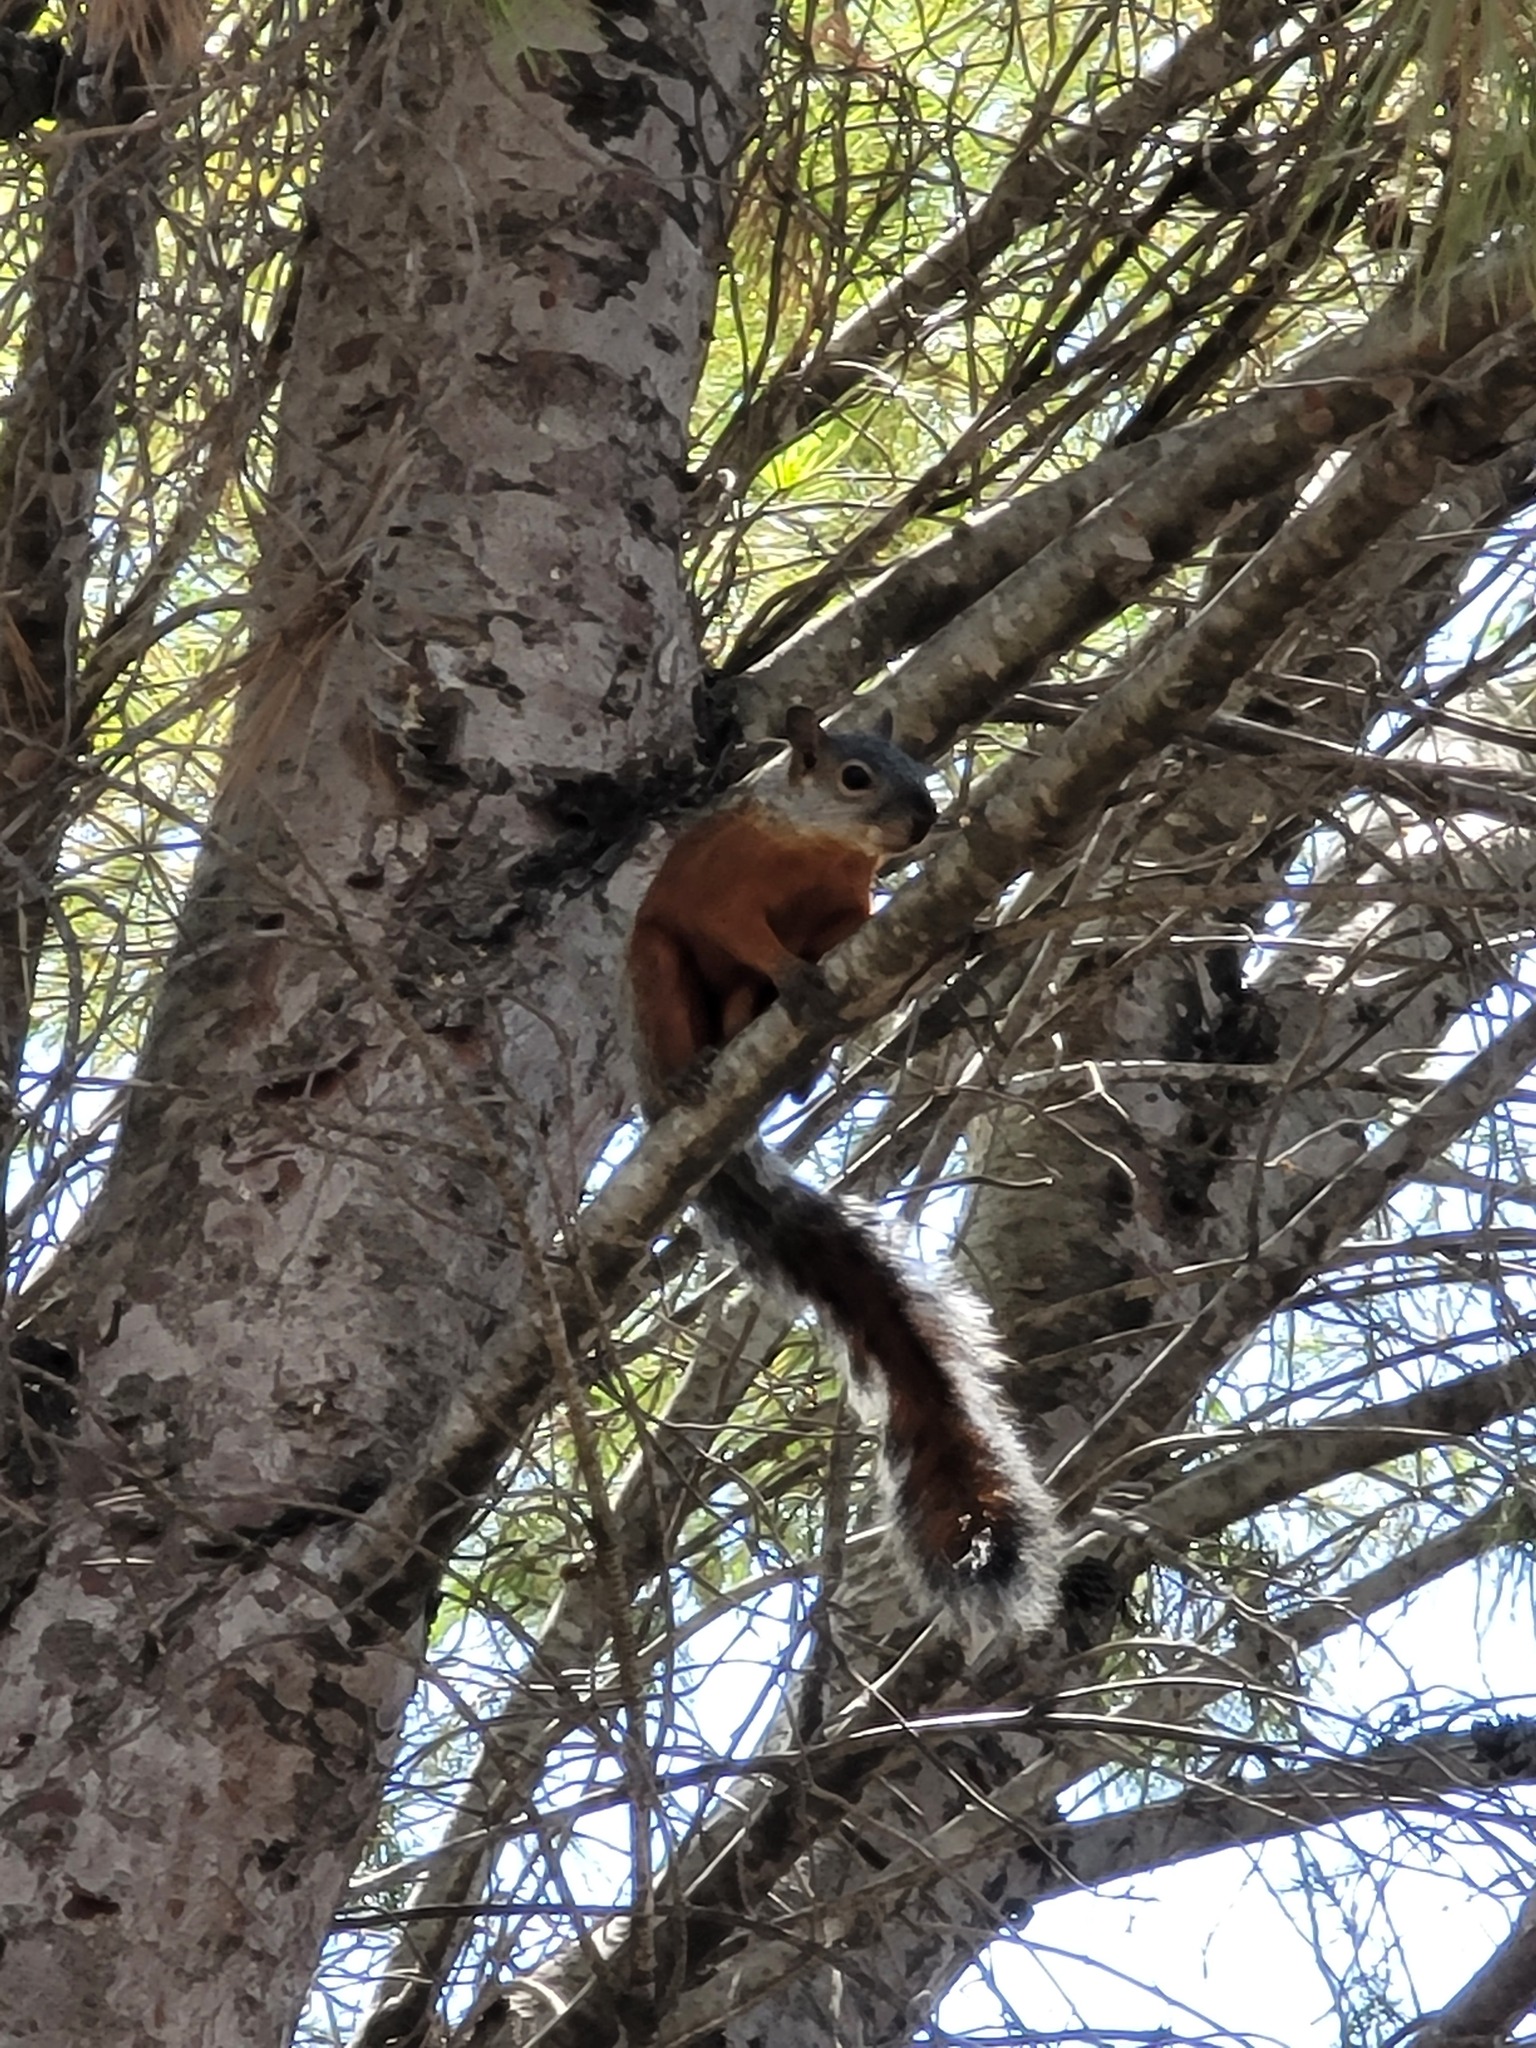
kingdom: Animalia
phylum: Chordata
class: Mammalia
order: Rodentia
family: Sciuridae
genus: Sciurus
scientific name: Sciurus aureogaster
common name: Red-bellied squirrel
